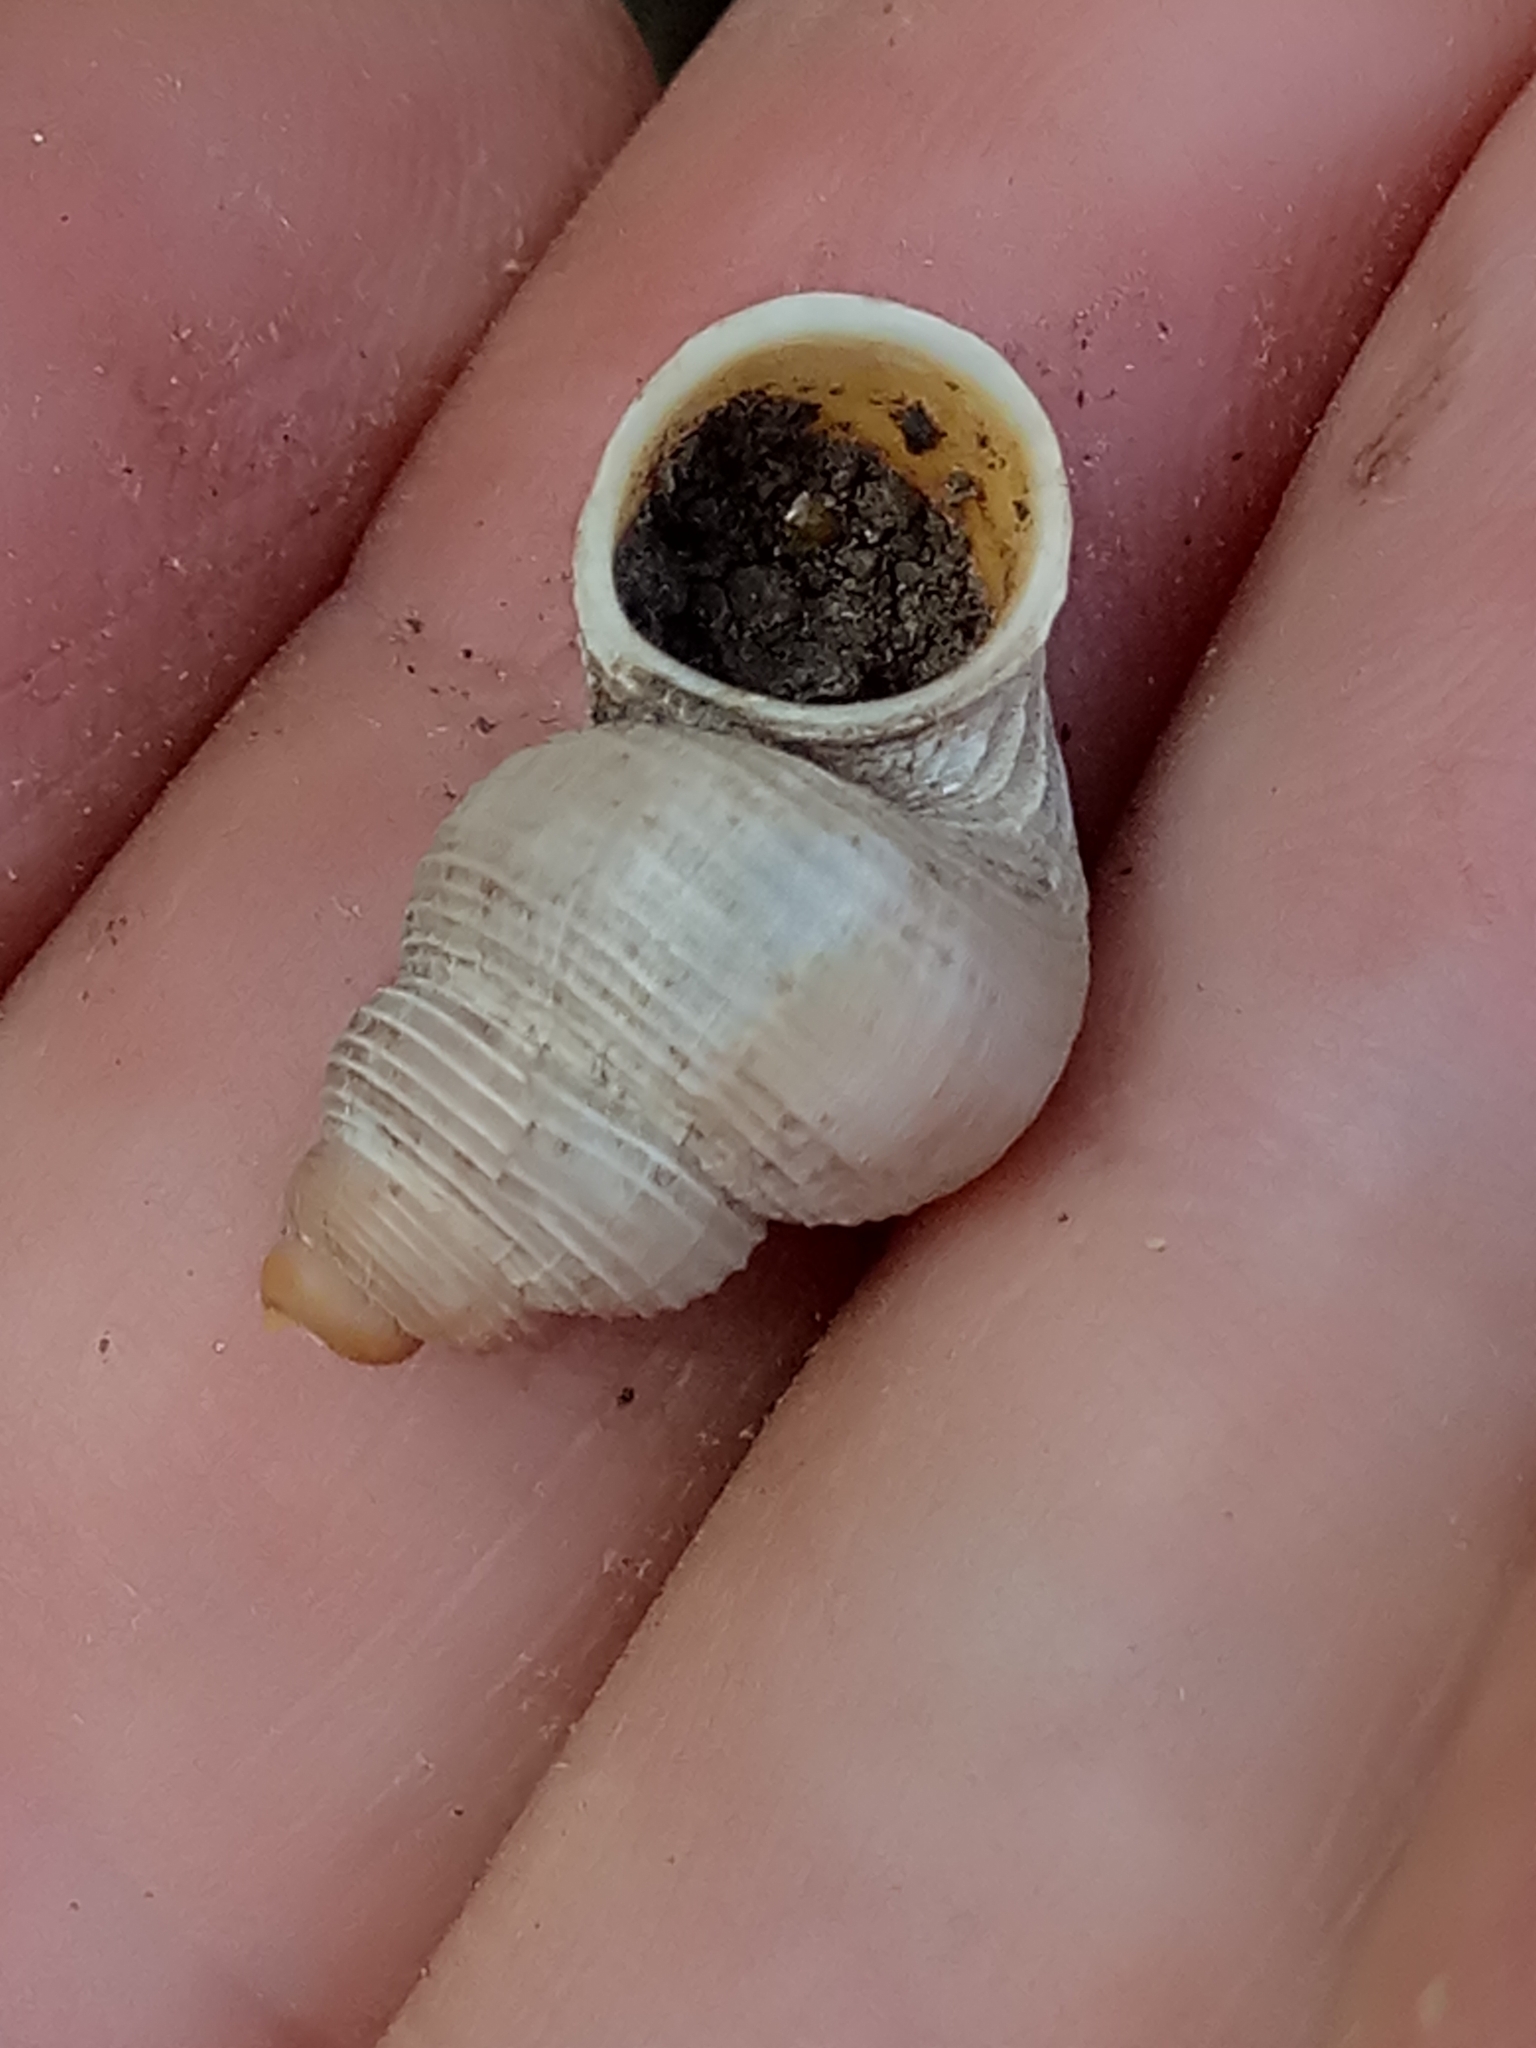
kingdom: Animalia
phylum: Mollusca
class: Gastropoda
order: Littorinimorpha
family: Pomatiidae
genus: Tudorella
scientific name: Tudorella sulcata
